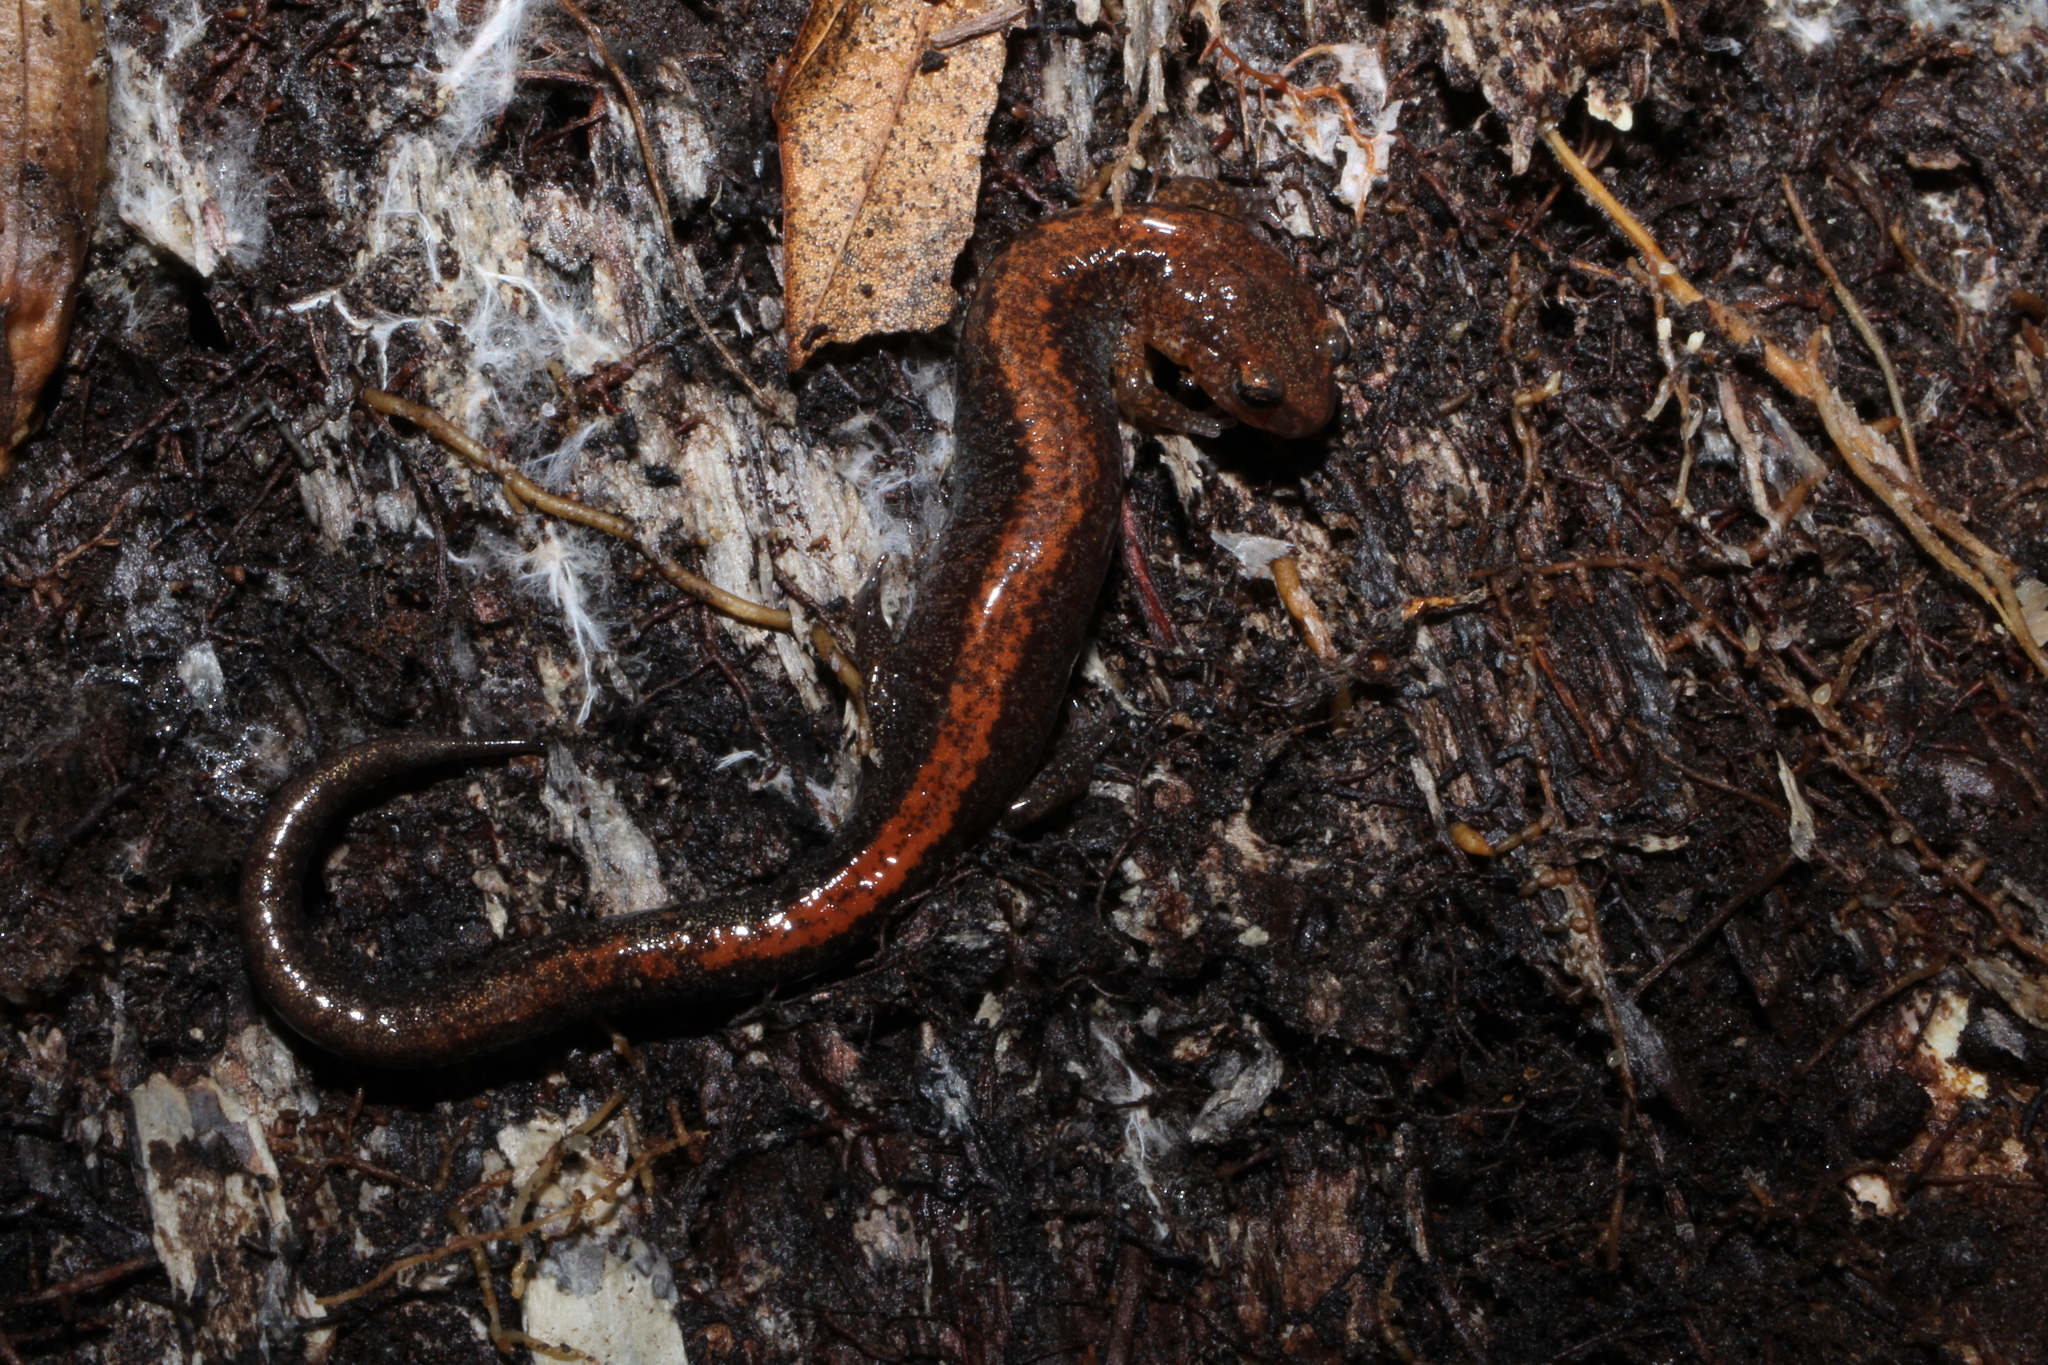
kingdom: Animalia
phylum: Chordata
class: Amphibia
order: Caudata
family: Plethodontidae
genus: Plethodon
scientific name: Plethodon cinereus
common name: Redback salamander
